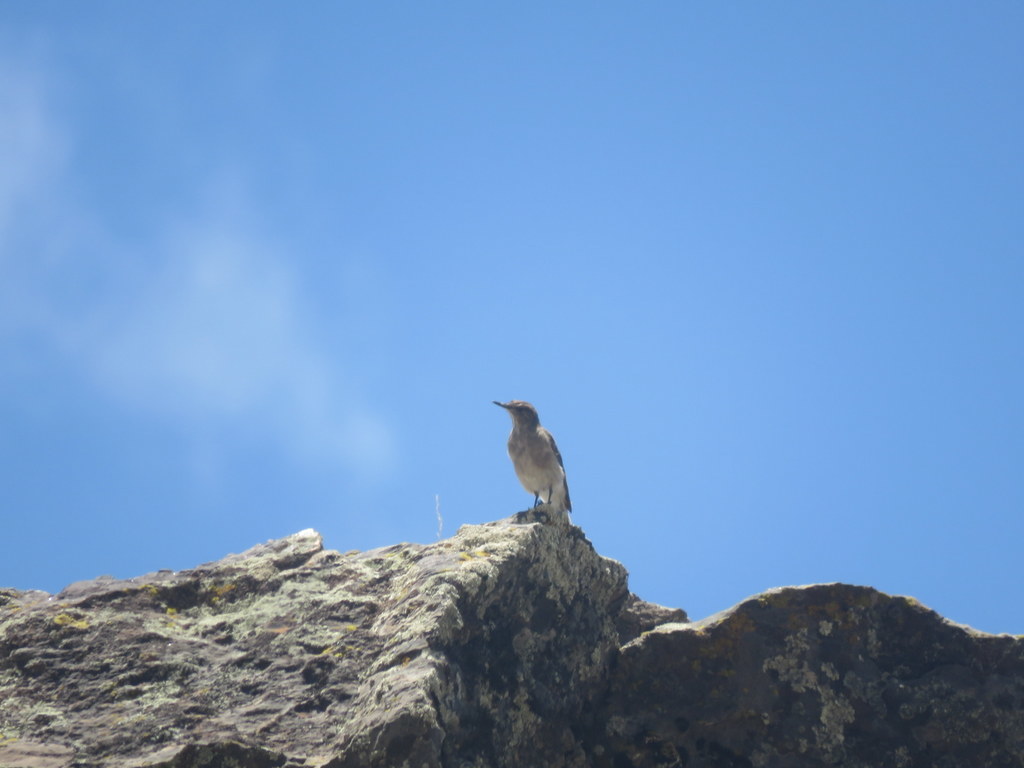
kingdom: Animalia
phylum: Chordata
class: Aves
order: Passeriformes
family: Tyrannidae
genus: Agriornis
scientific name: Agriornis montanus
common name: Black-billed shrike-tyrant
